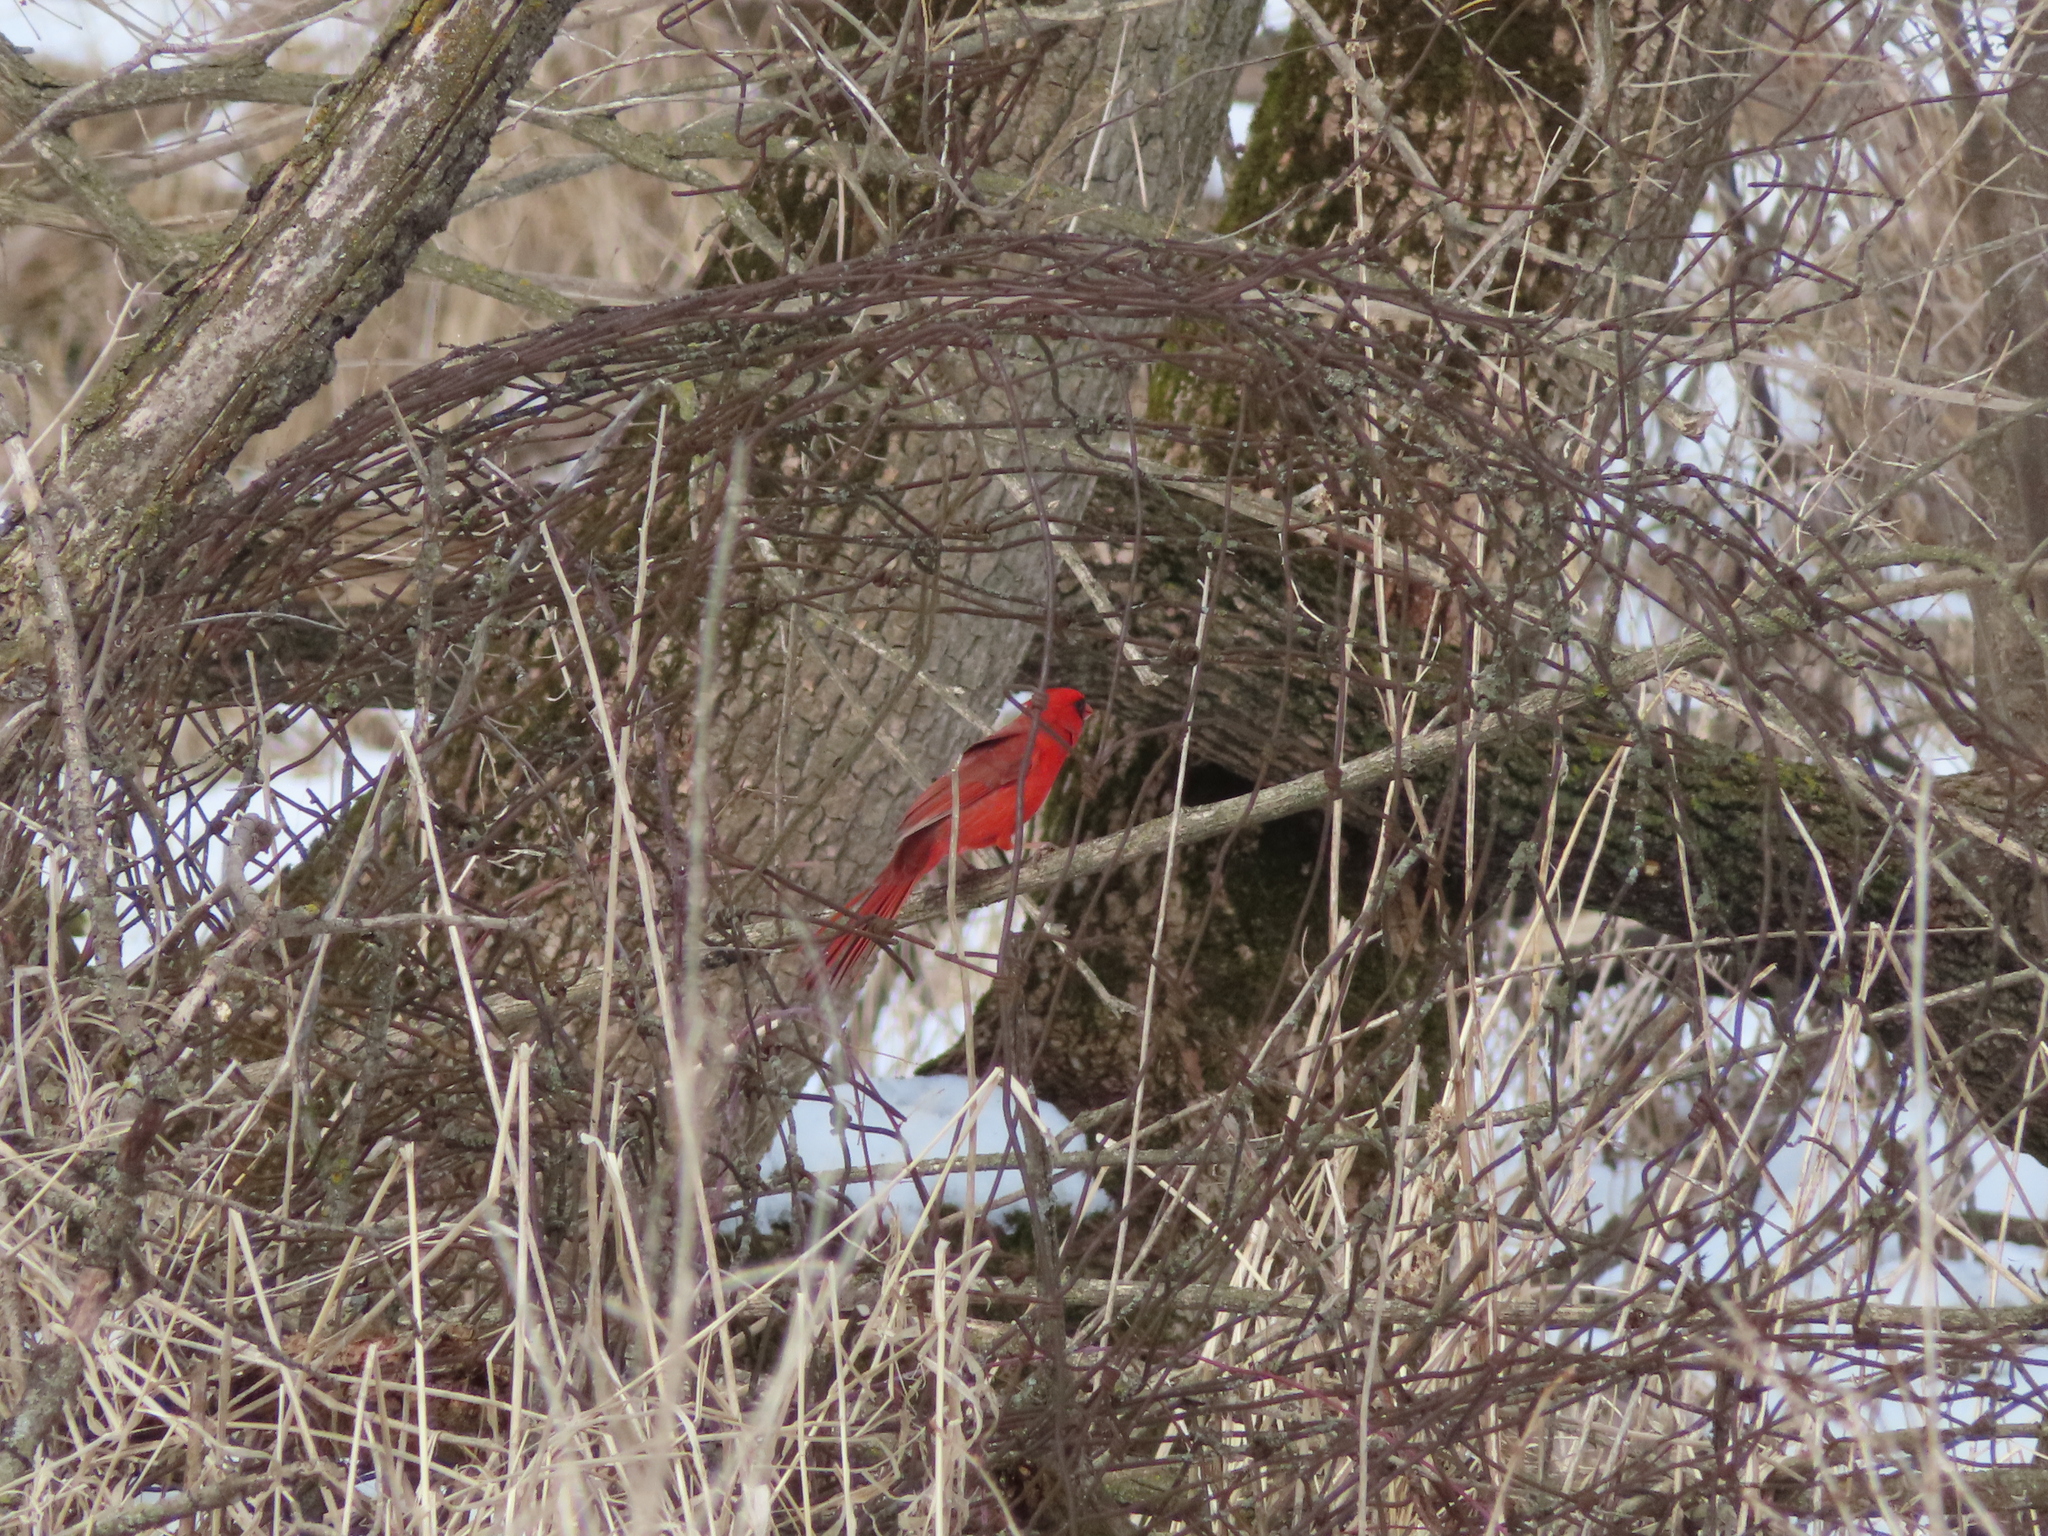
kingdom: Animalia
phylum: Chordata
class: Aves
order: Passeriformes
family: Cardinalidae
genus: Cardinalis
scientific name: Cardinalis cardinalis
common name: Northern cardinal
